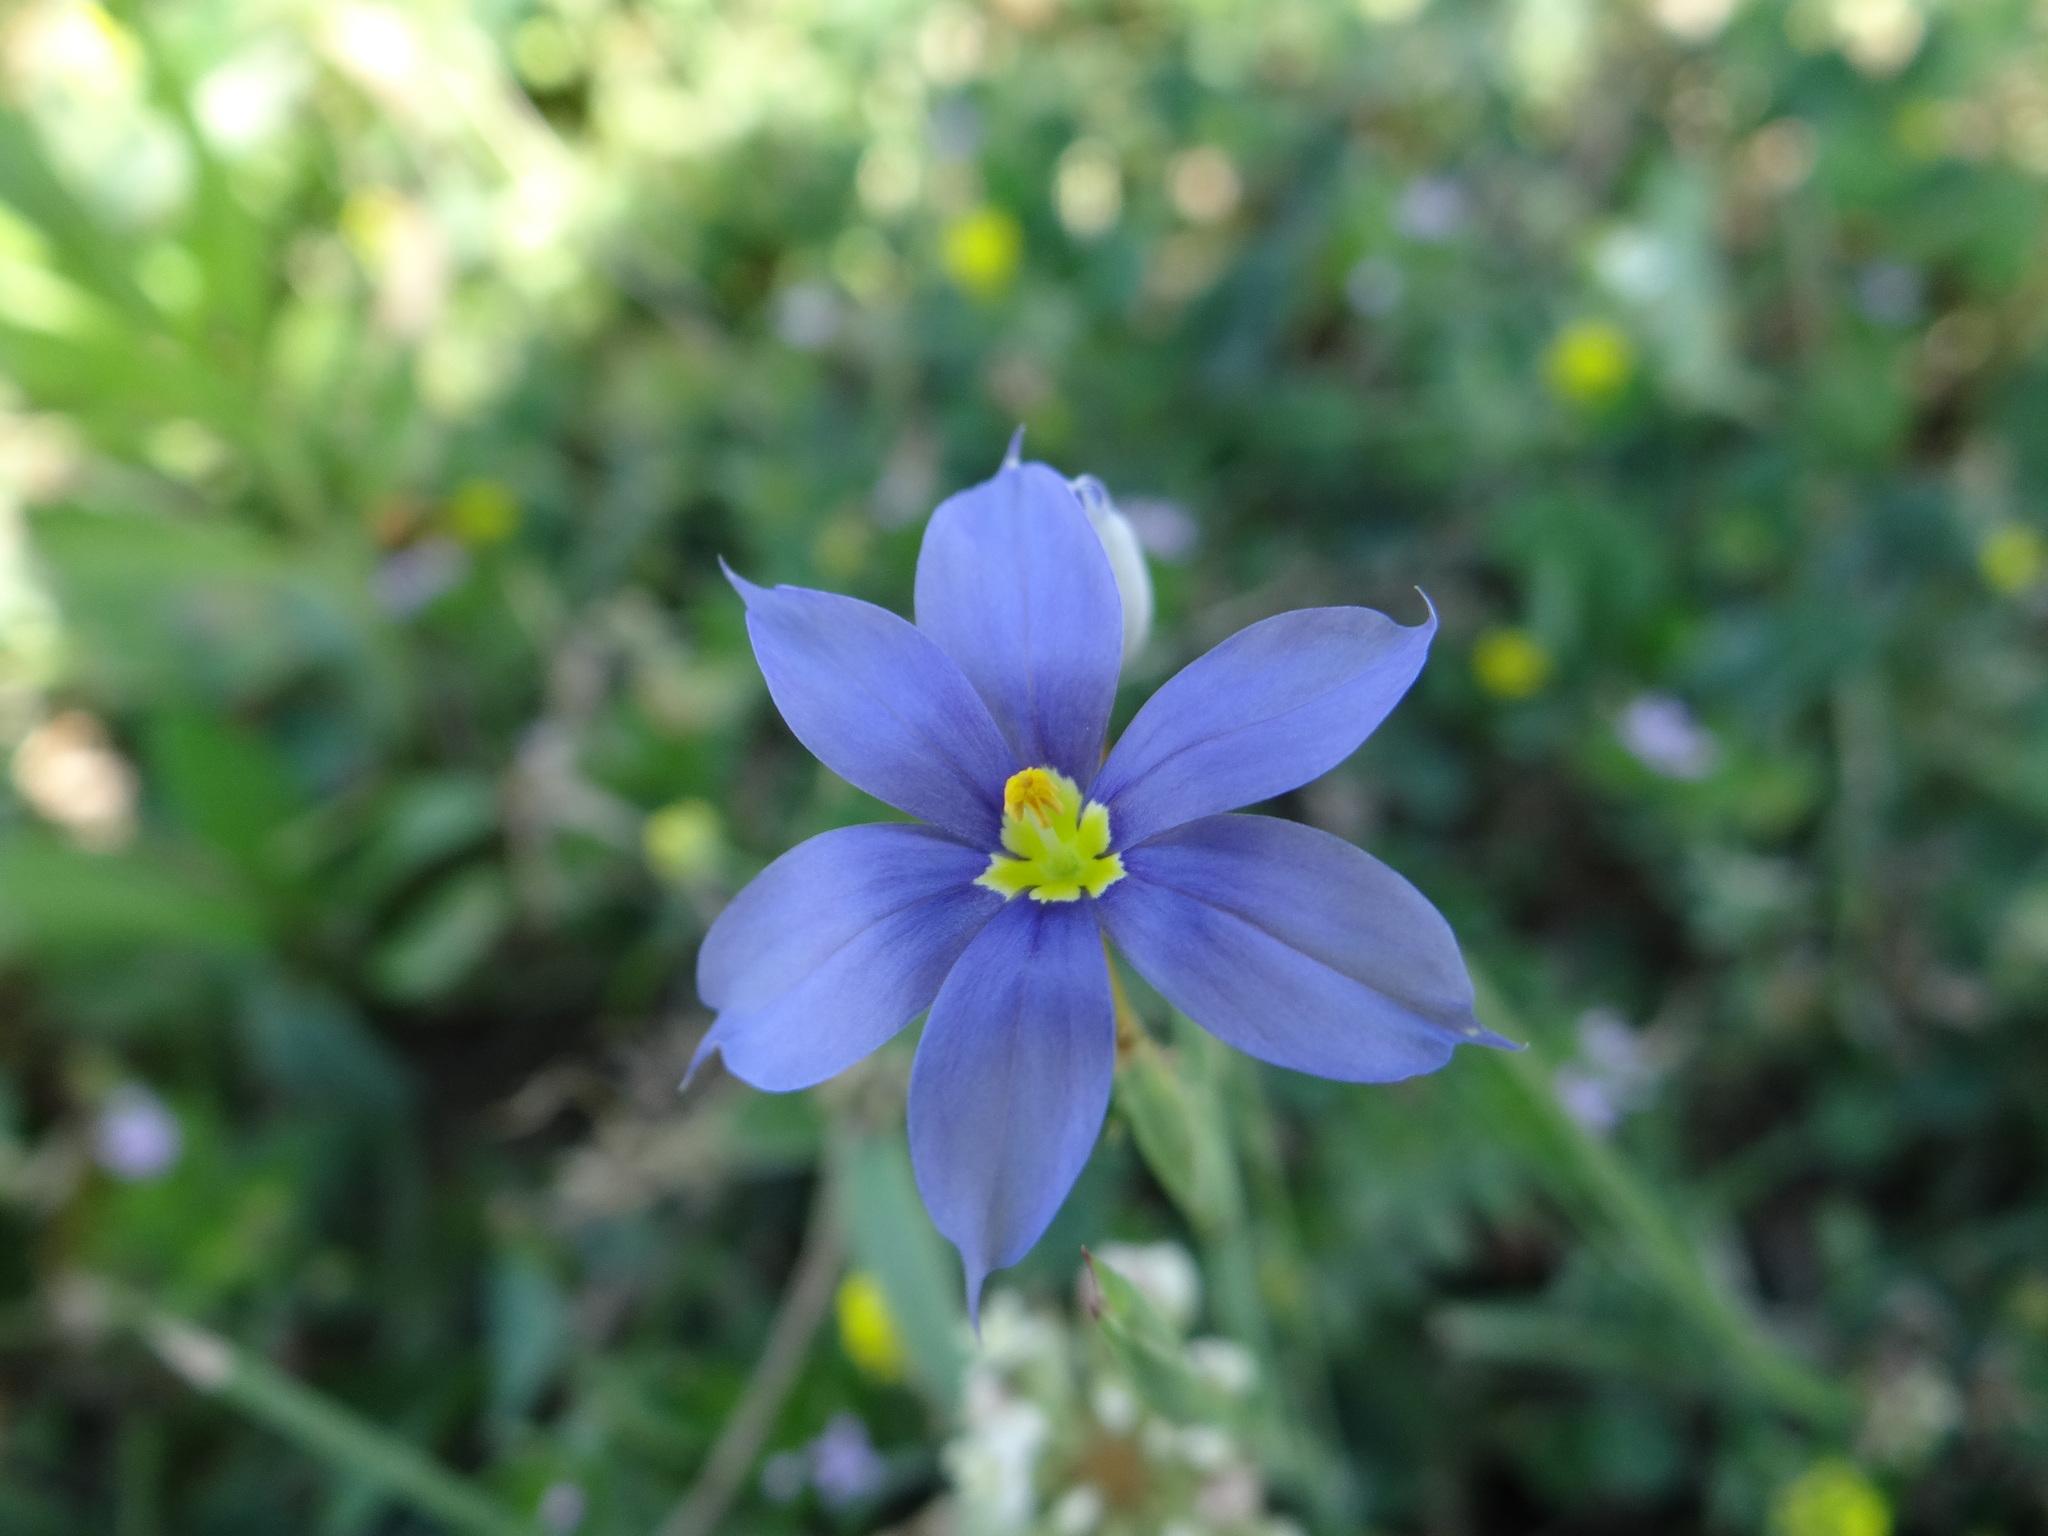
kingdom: Plantae
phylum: Tracheophyta
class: Liliopsida
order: Asparagales
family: Iridaceae
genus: Sisyrinchium
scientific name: Sisyrinchium pruinosum
